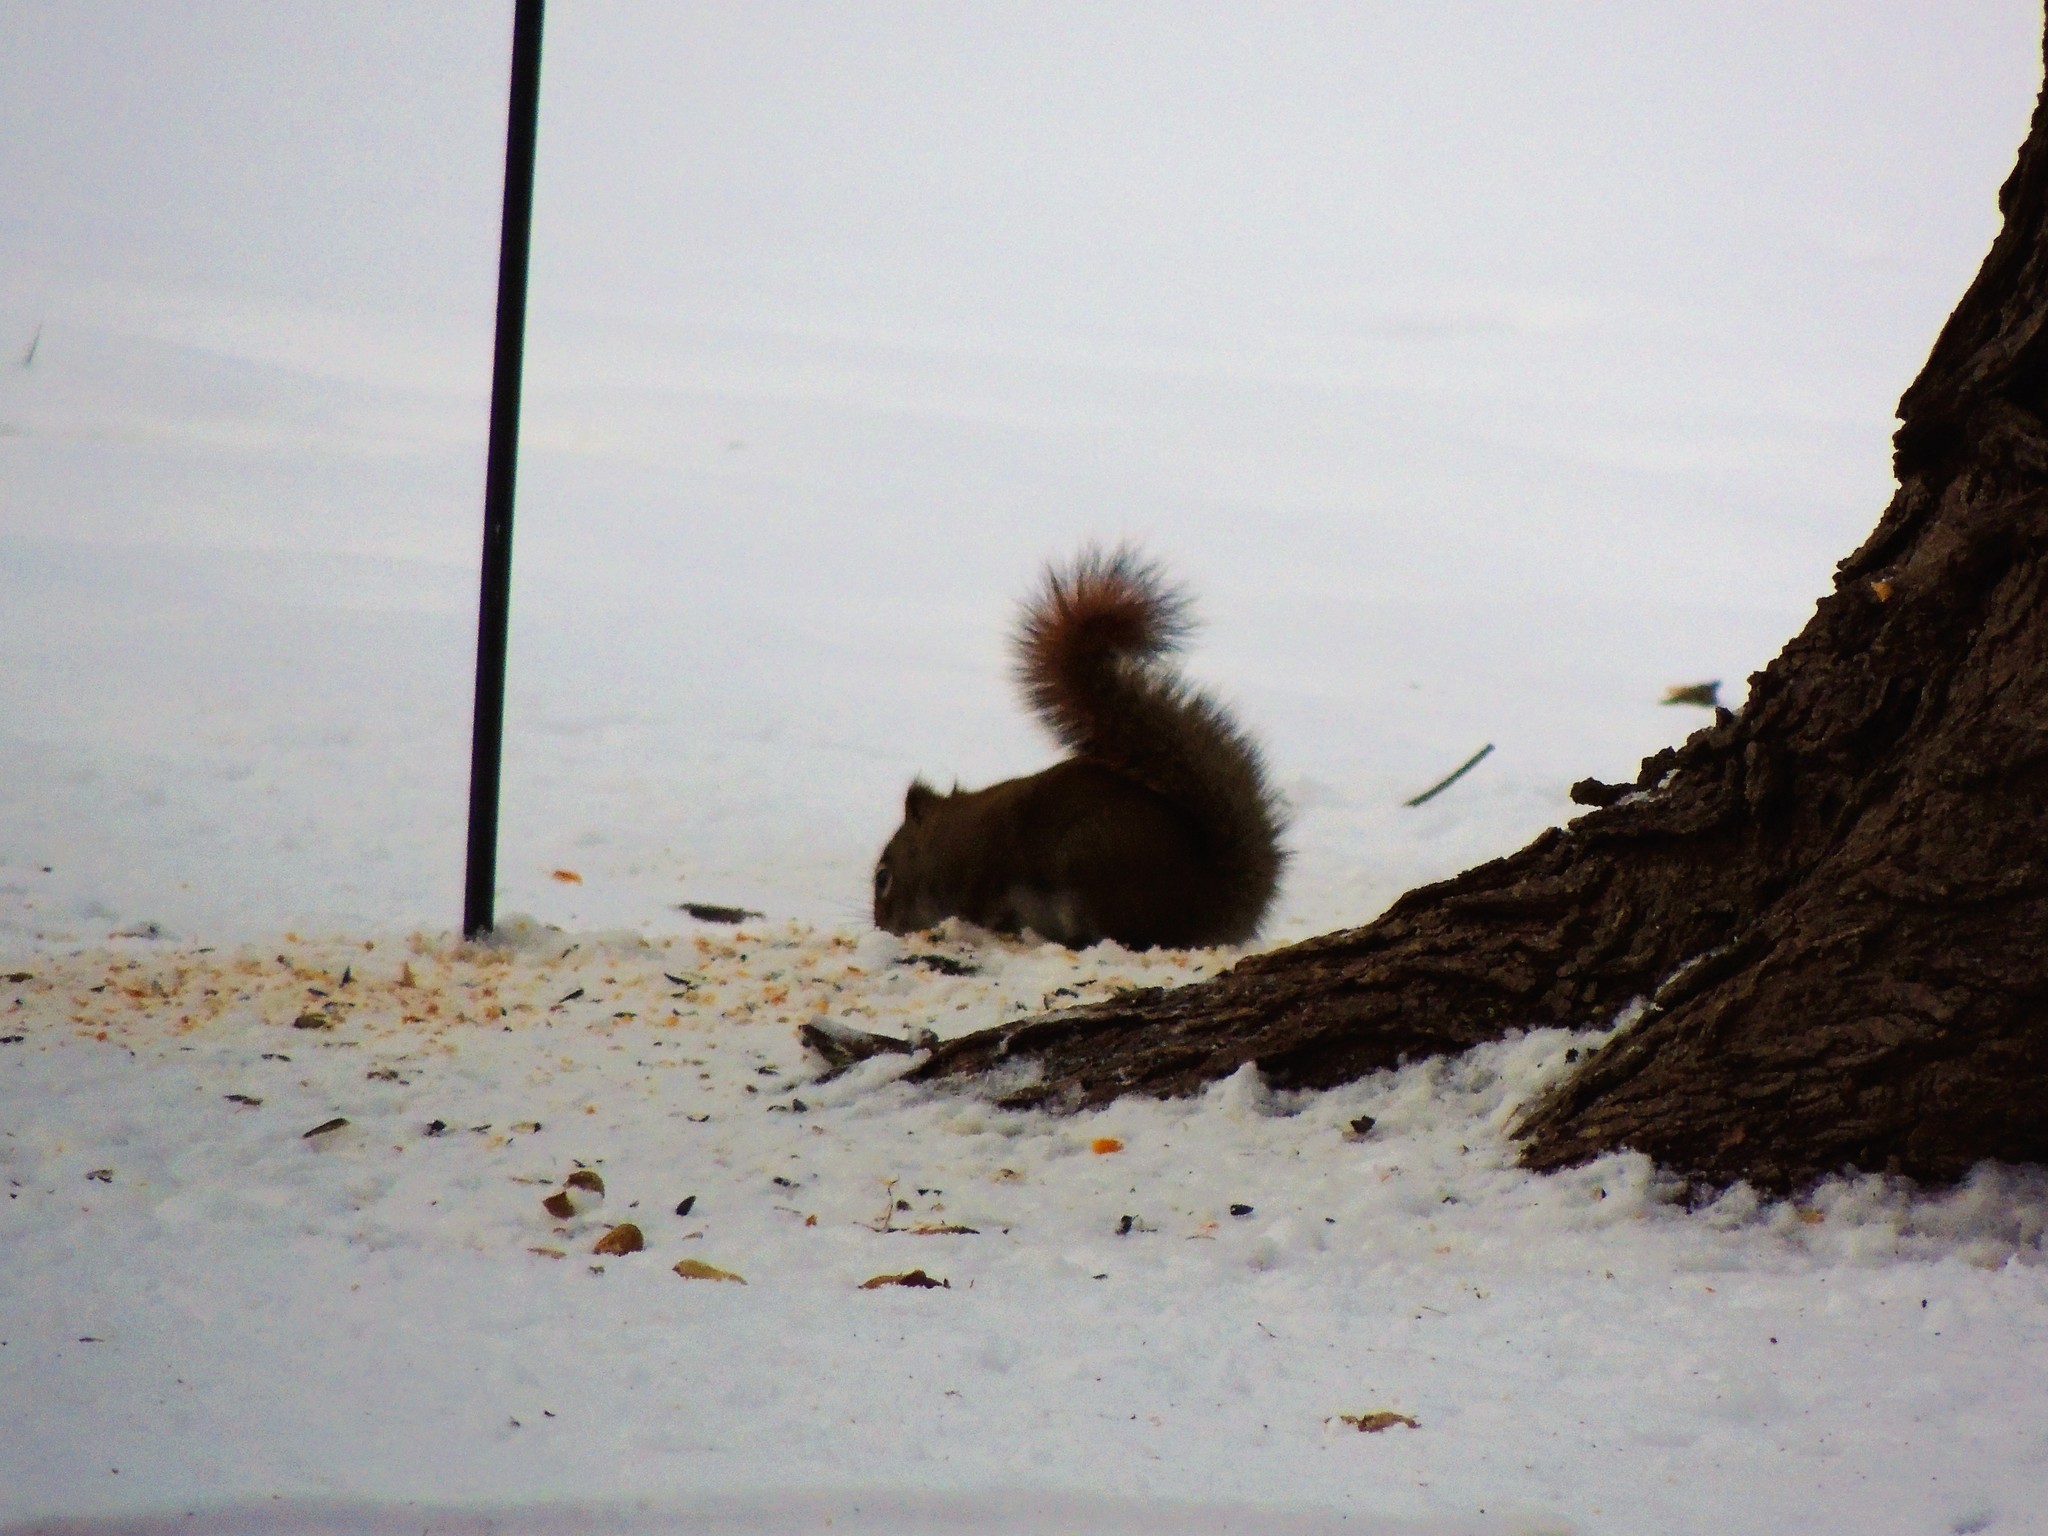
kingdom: Animalia
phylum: Chordata
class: Mammalia
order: Rodentia
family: Sciuridae
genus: Tamiasciurus
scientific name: Tamiasciurus hudsonicus
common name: Red squirrel
